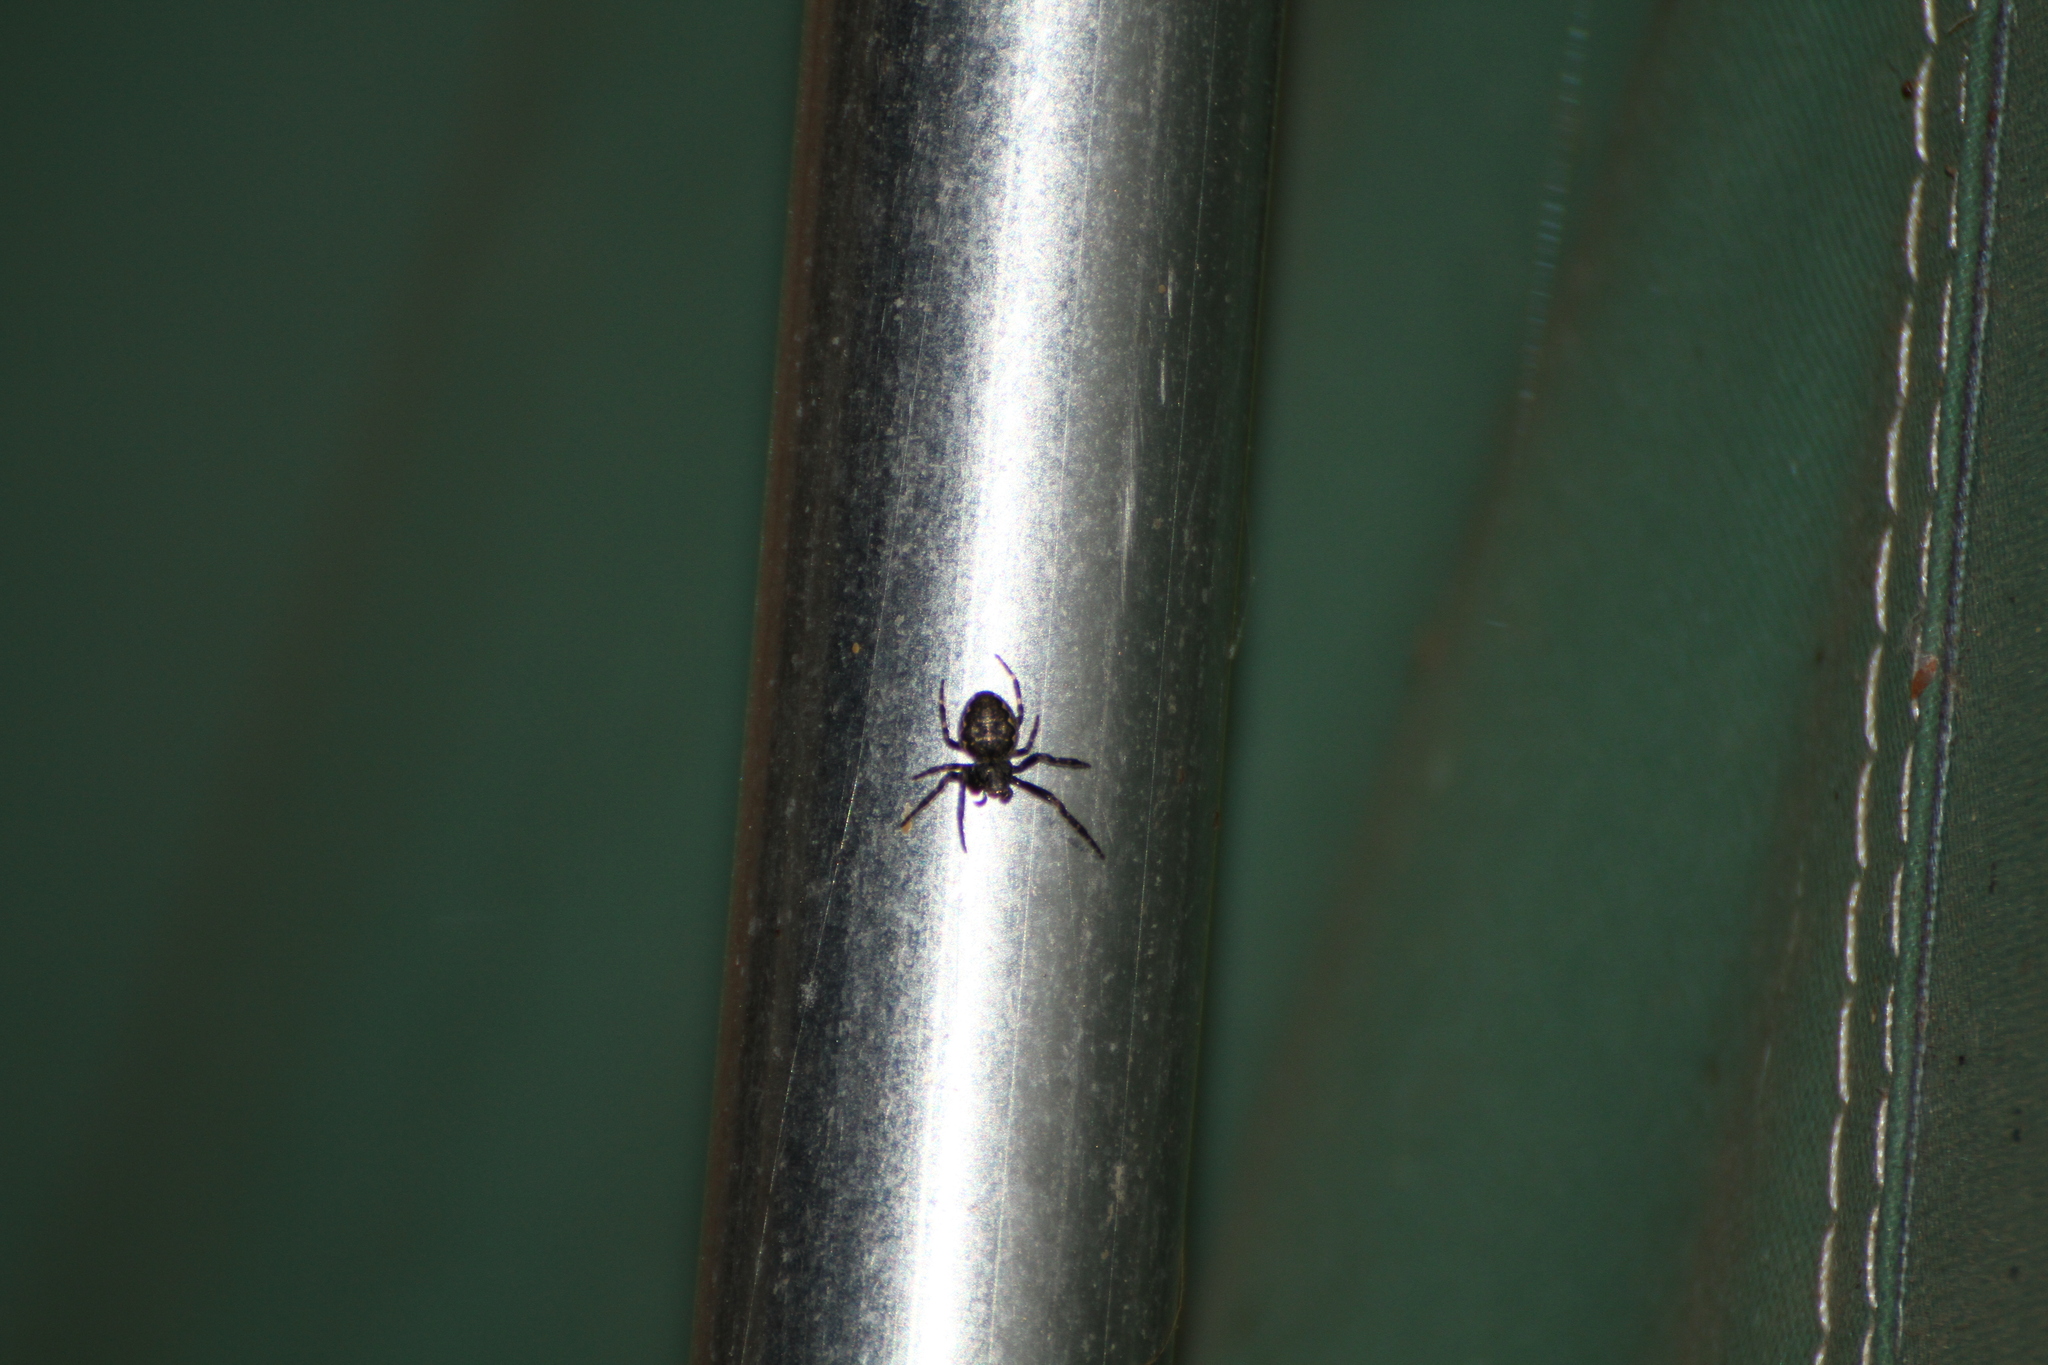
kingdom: Animalia
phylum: Arthropoda
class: Arachnida
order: Araneae
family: Araneidae
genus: Nuctenea
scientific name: Nuctenea umbratica
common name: Toad spider
